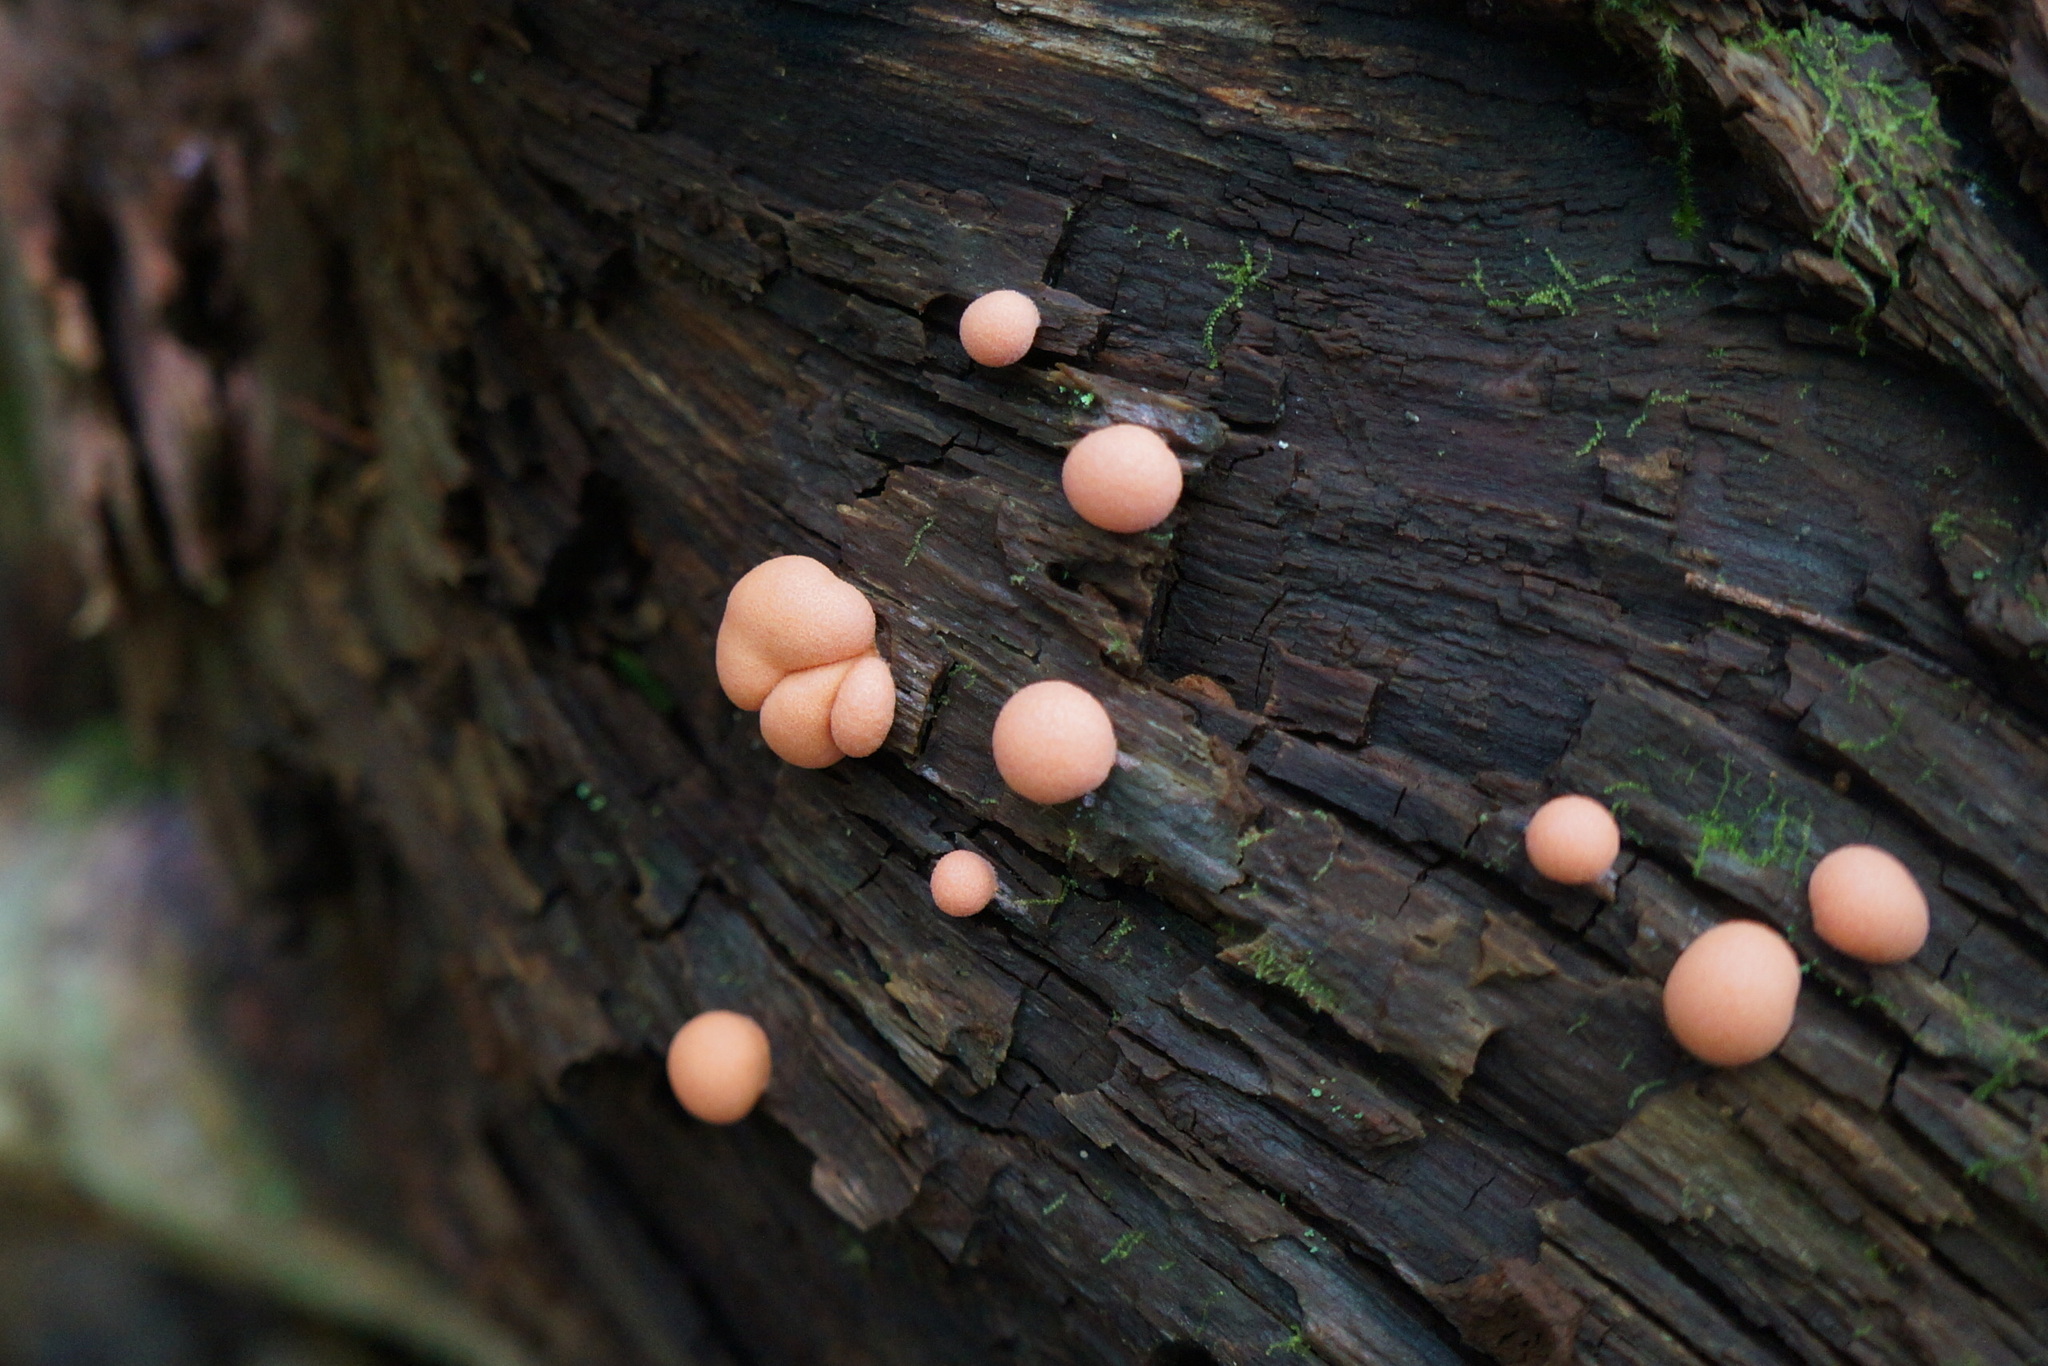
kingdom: Protozoa
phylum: Mycetozoa
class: Myxomycetes
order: Cribrariales
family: Tubiferaceae
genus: Lycogala
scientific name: Lycogala epidendrum
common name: Wolf's milk
